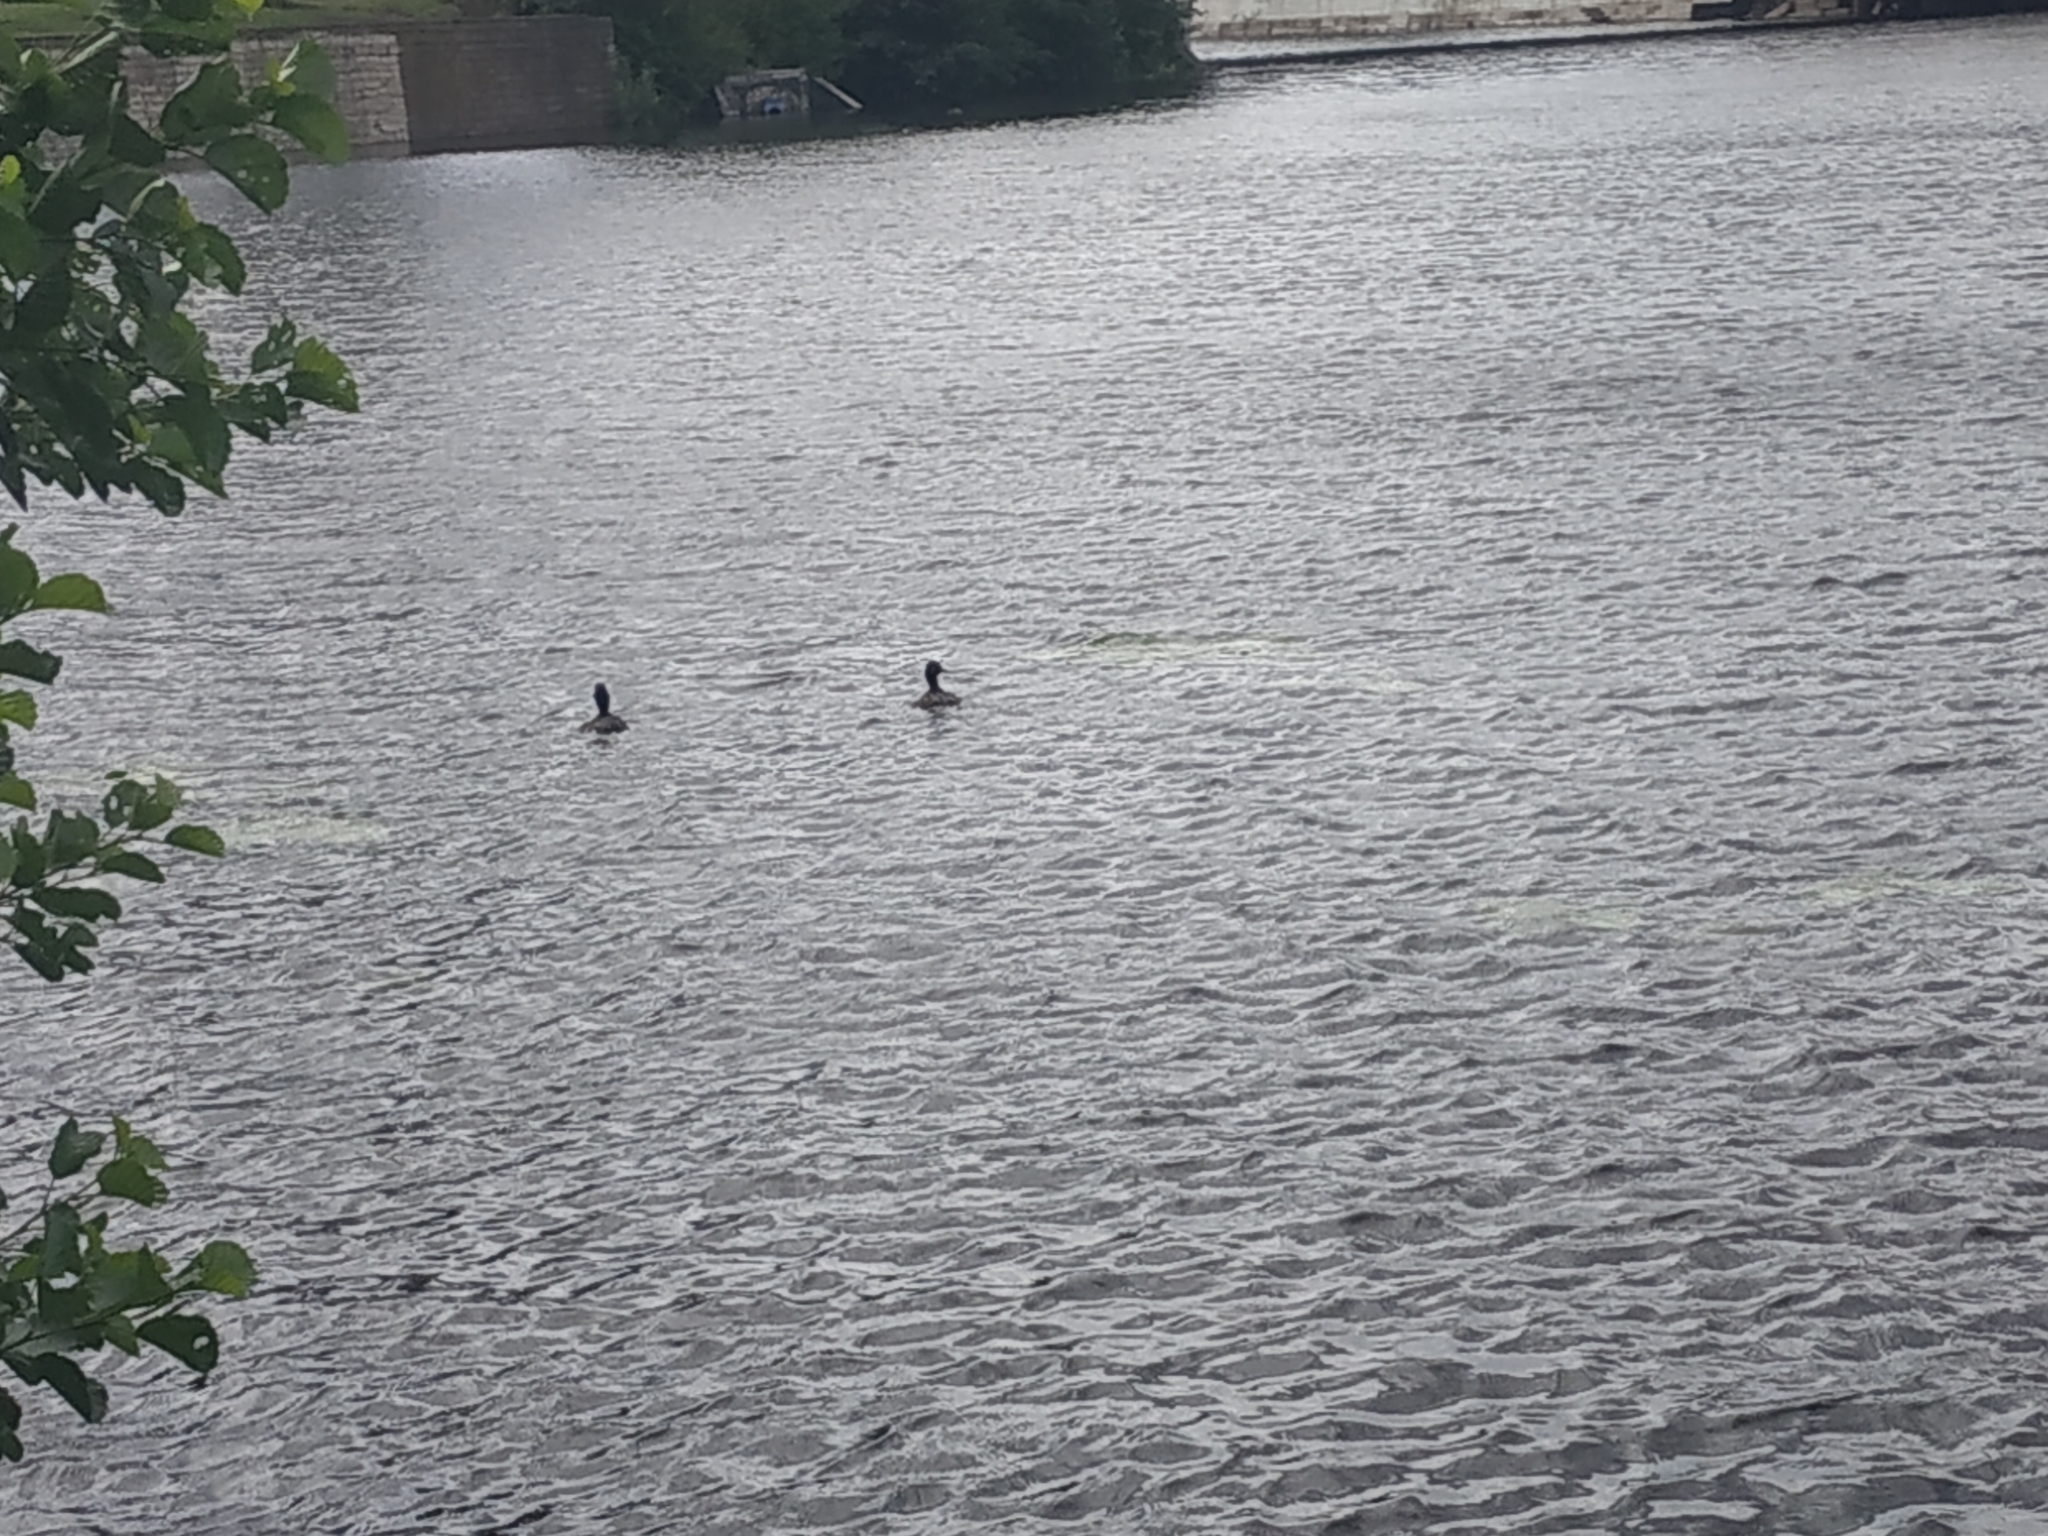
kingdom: Animalia
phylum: Chordata
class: Aves
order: Anseriformes
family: Anatidae
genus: Aythya
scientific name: Aythya fuligula
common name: Tufted duck
